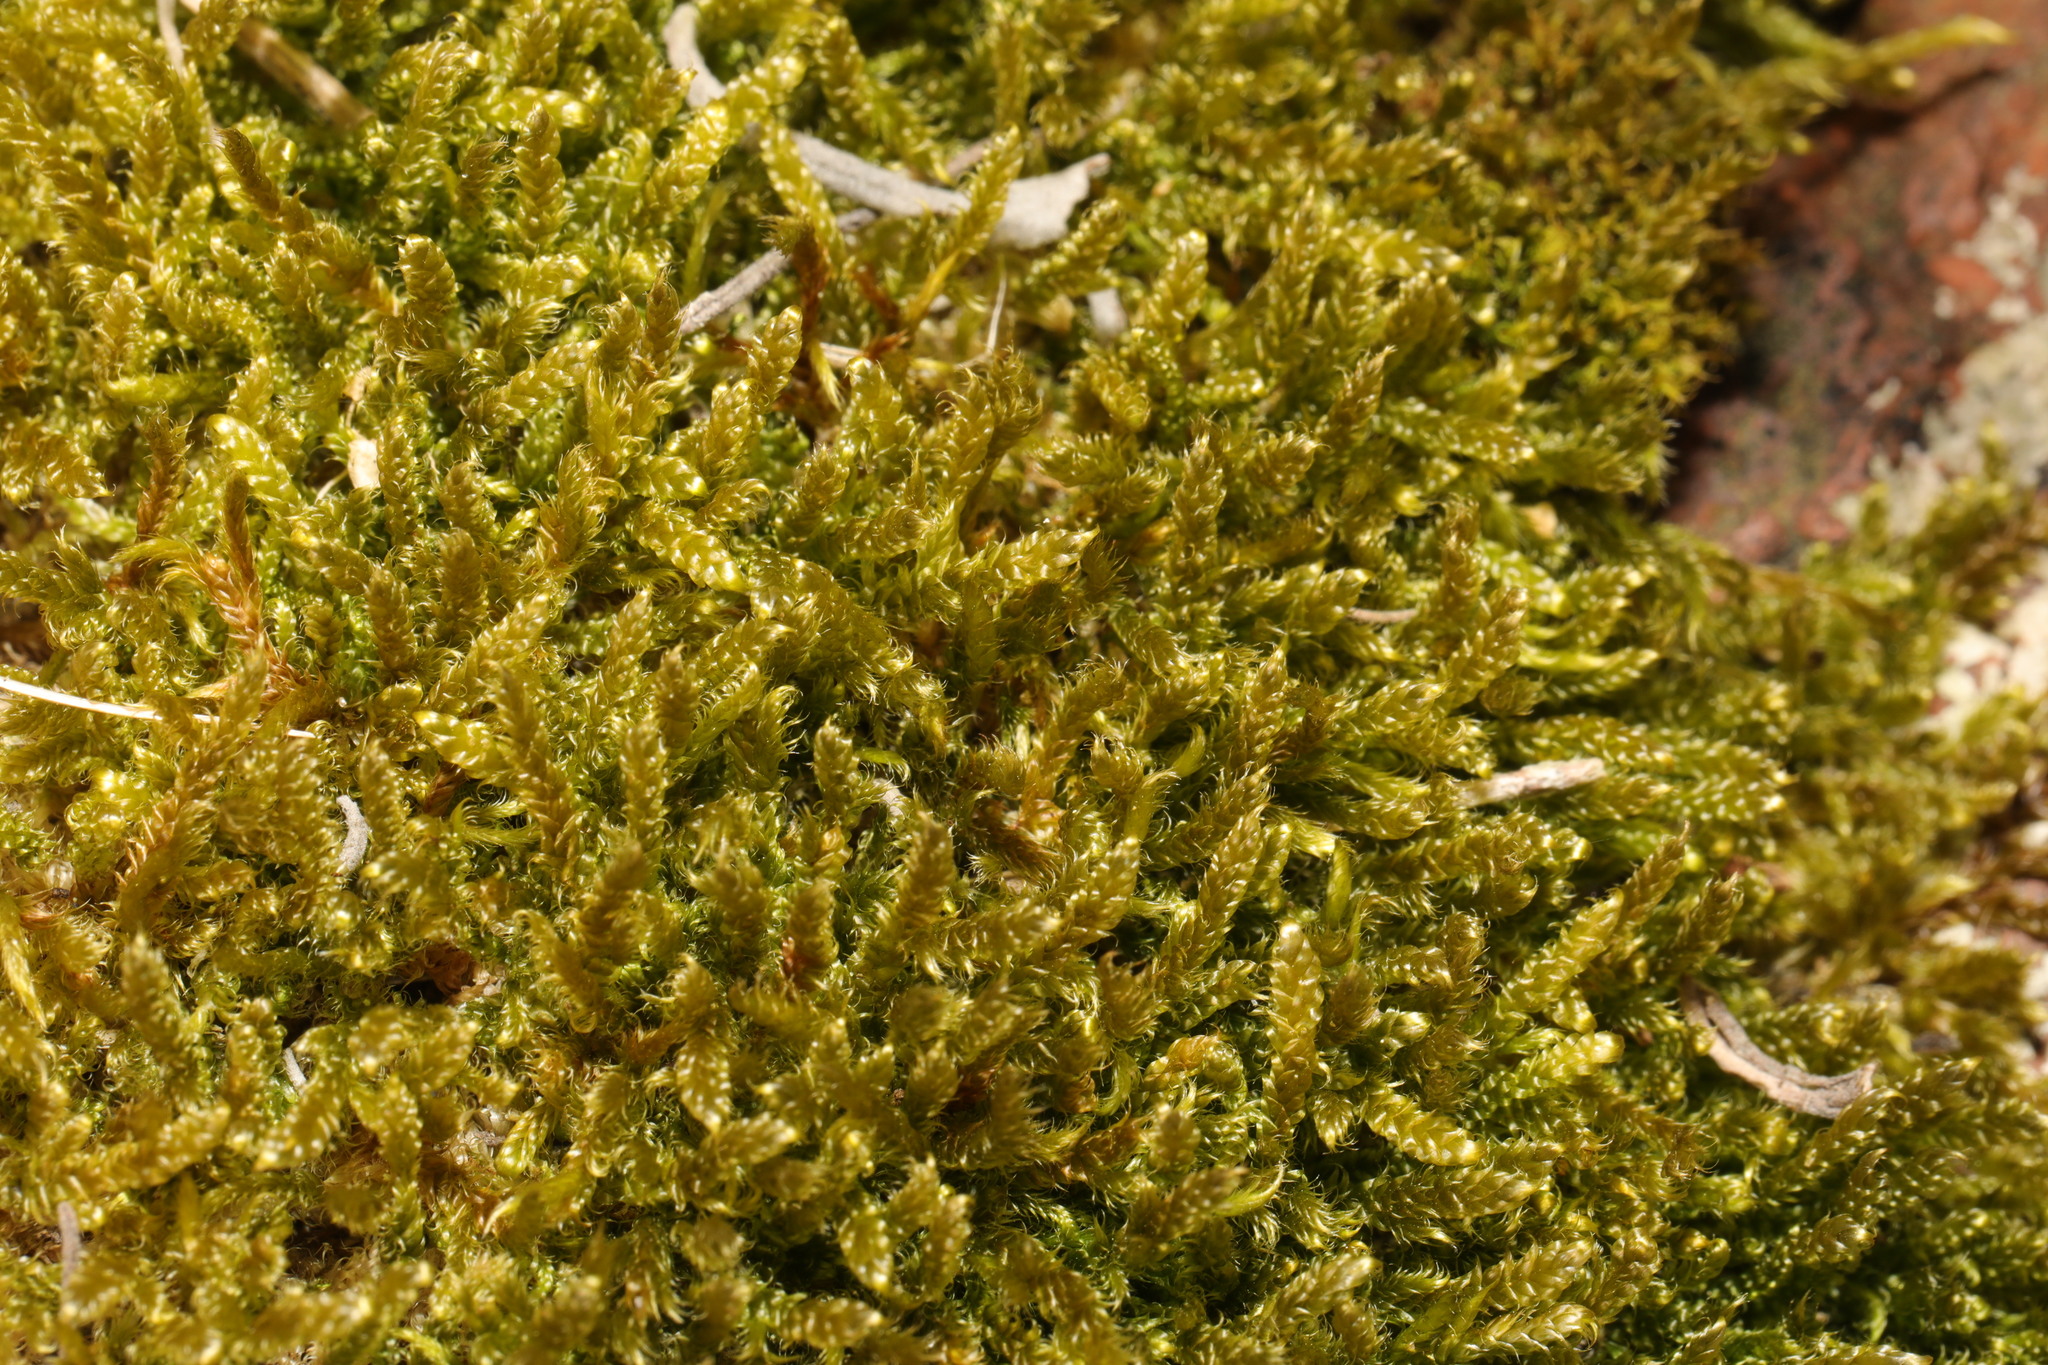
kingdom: Plantae
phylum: Bryophyta
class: Bryopsida
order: Hypnales
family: Hypnaceae
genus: Hypnum
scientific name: Hypnum cupressiforme
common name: Cypress-leaved plait-moss
